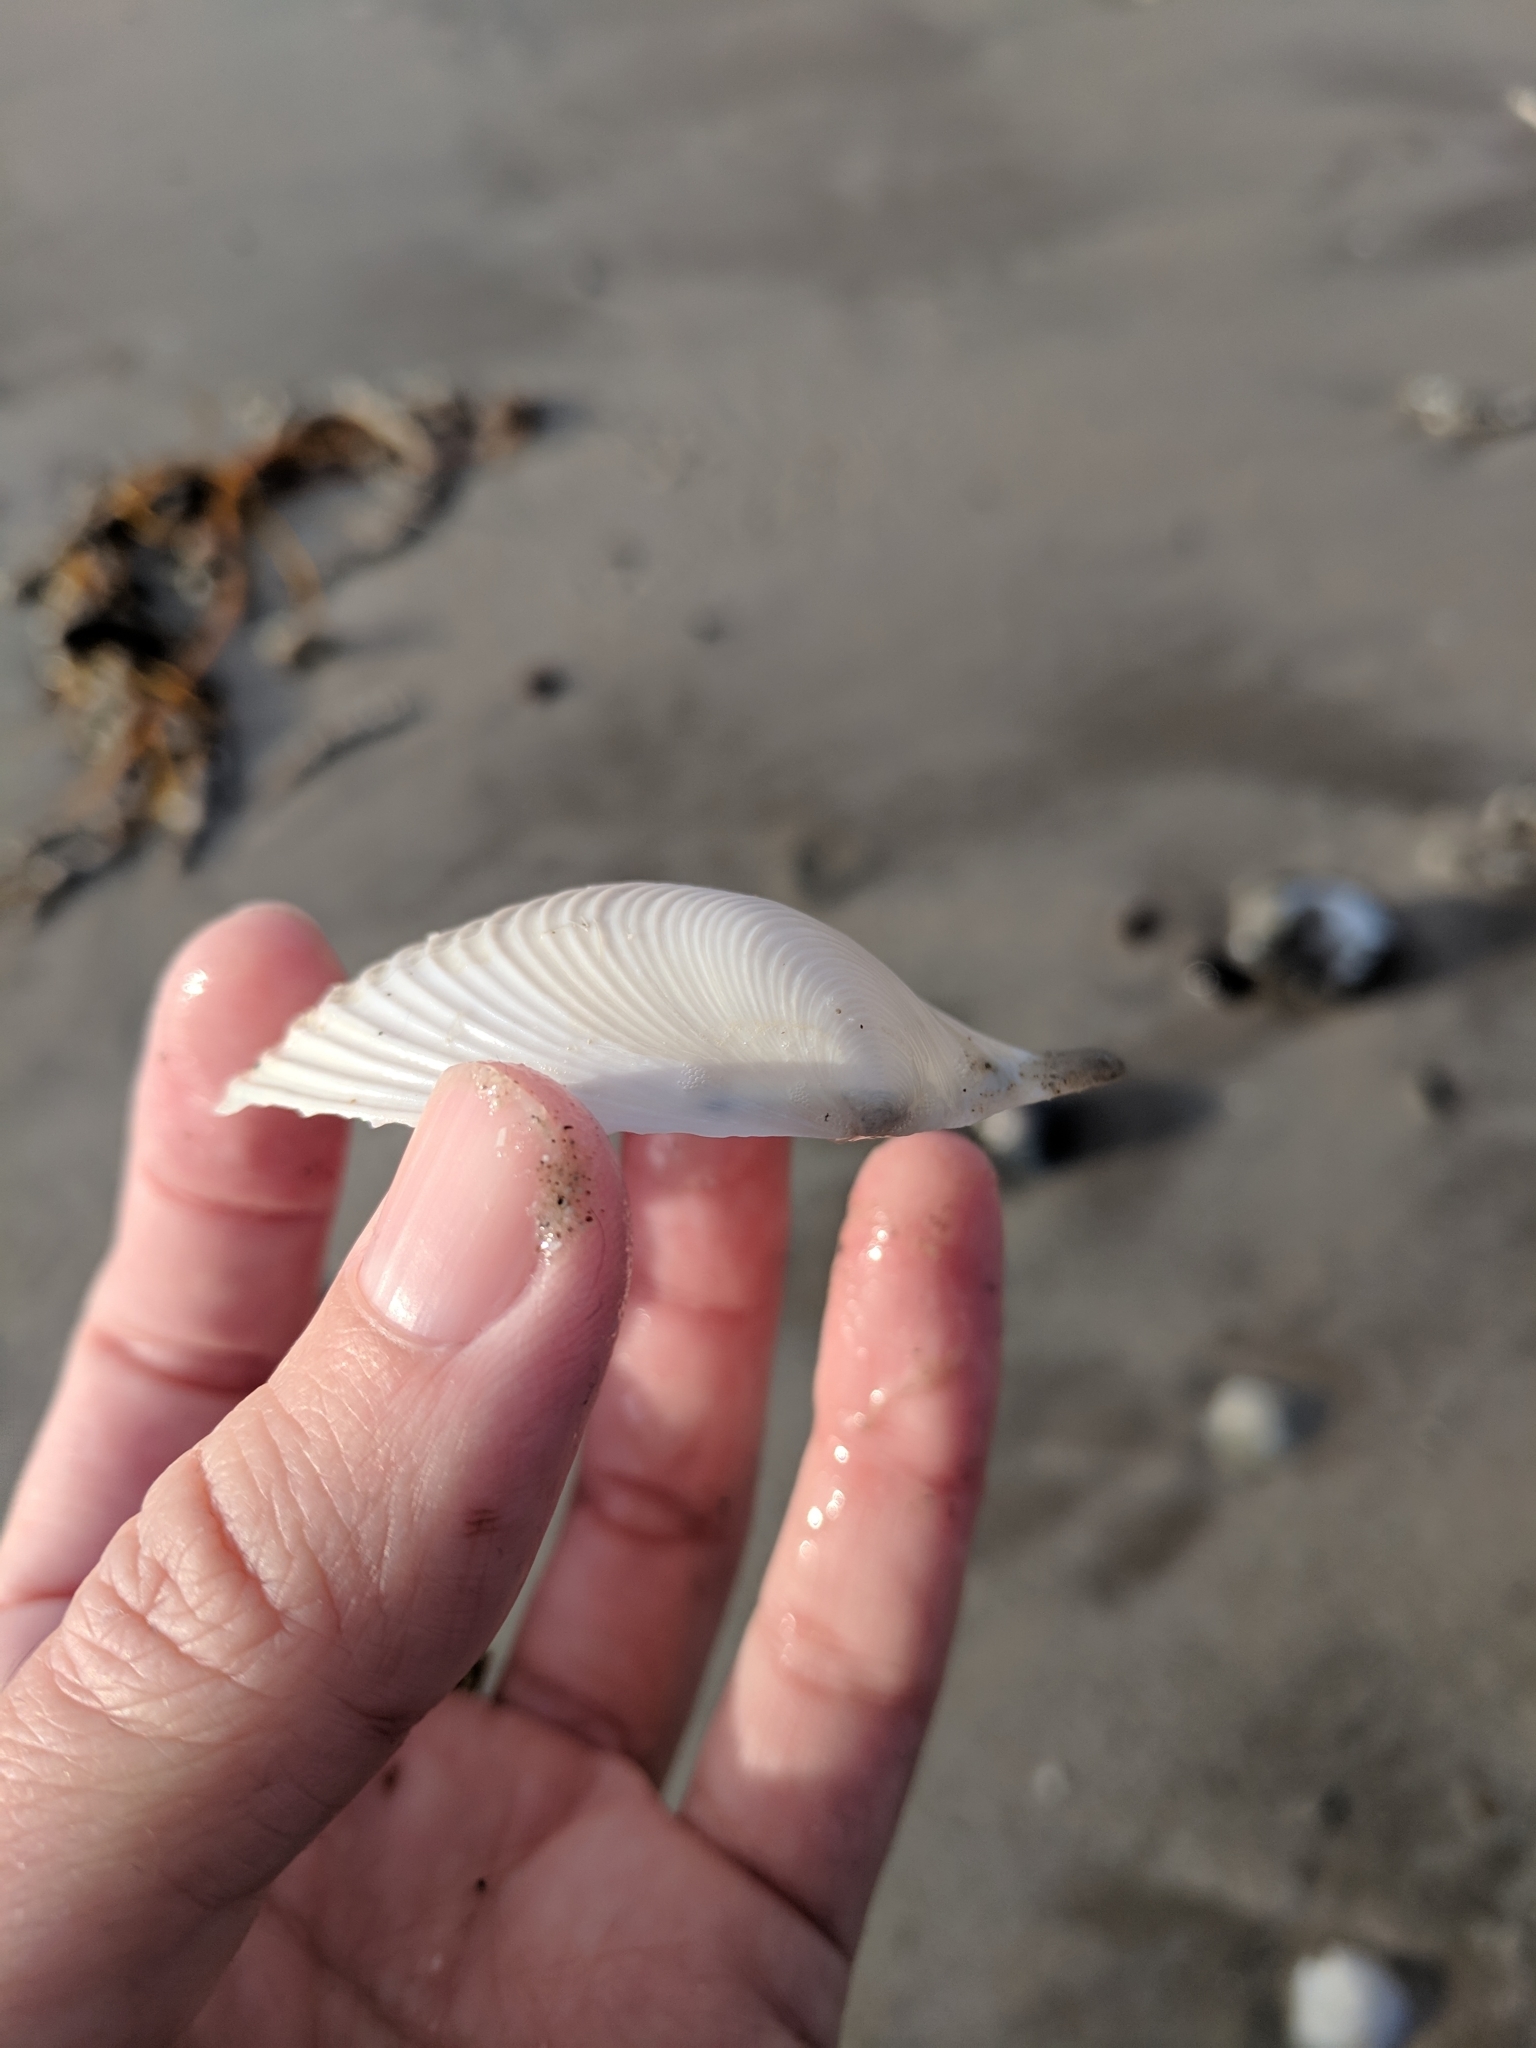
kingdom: Animalia
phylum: Mollusca
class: Bivalvia
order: Venerida
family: Anatinellidae
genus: Raeta
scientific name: Raeta plicatella
